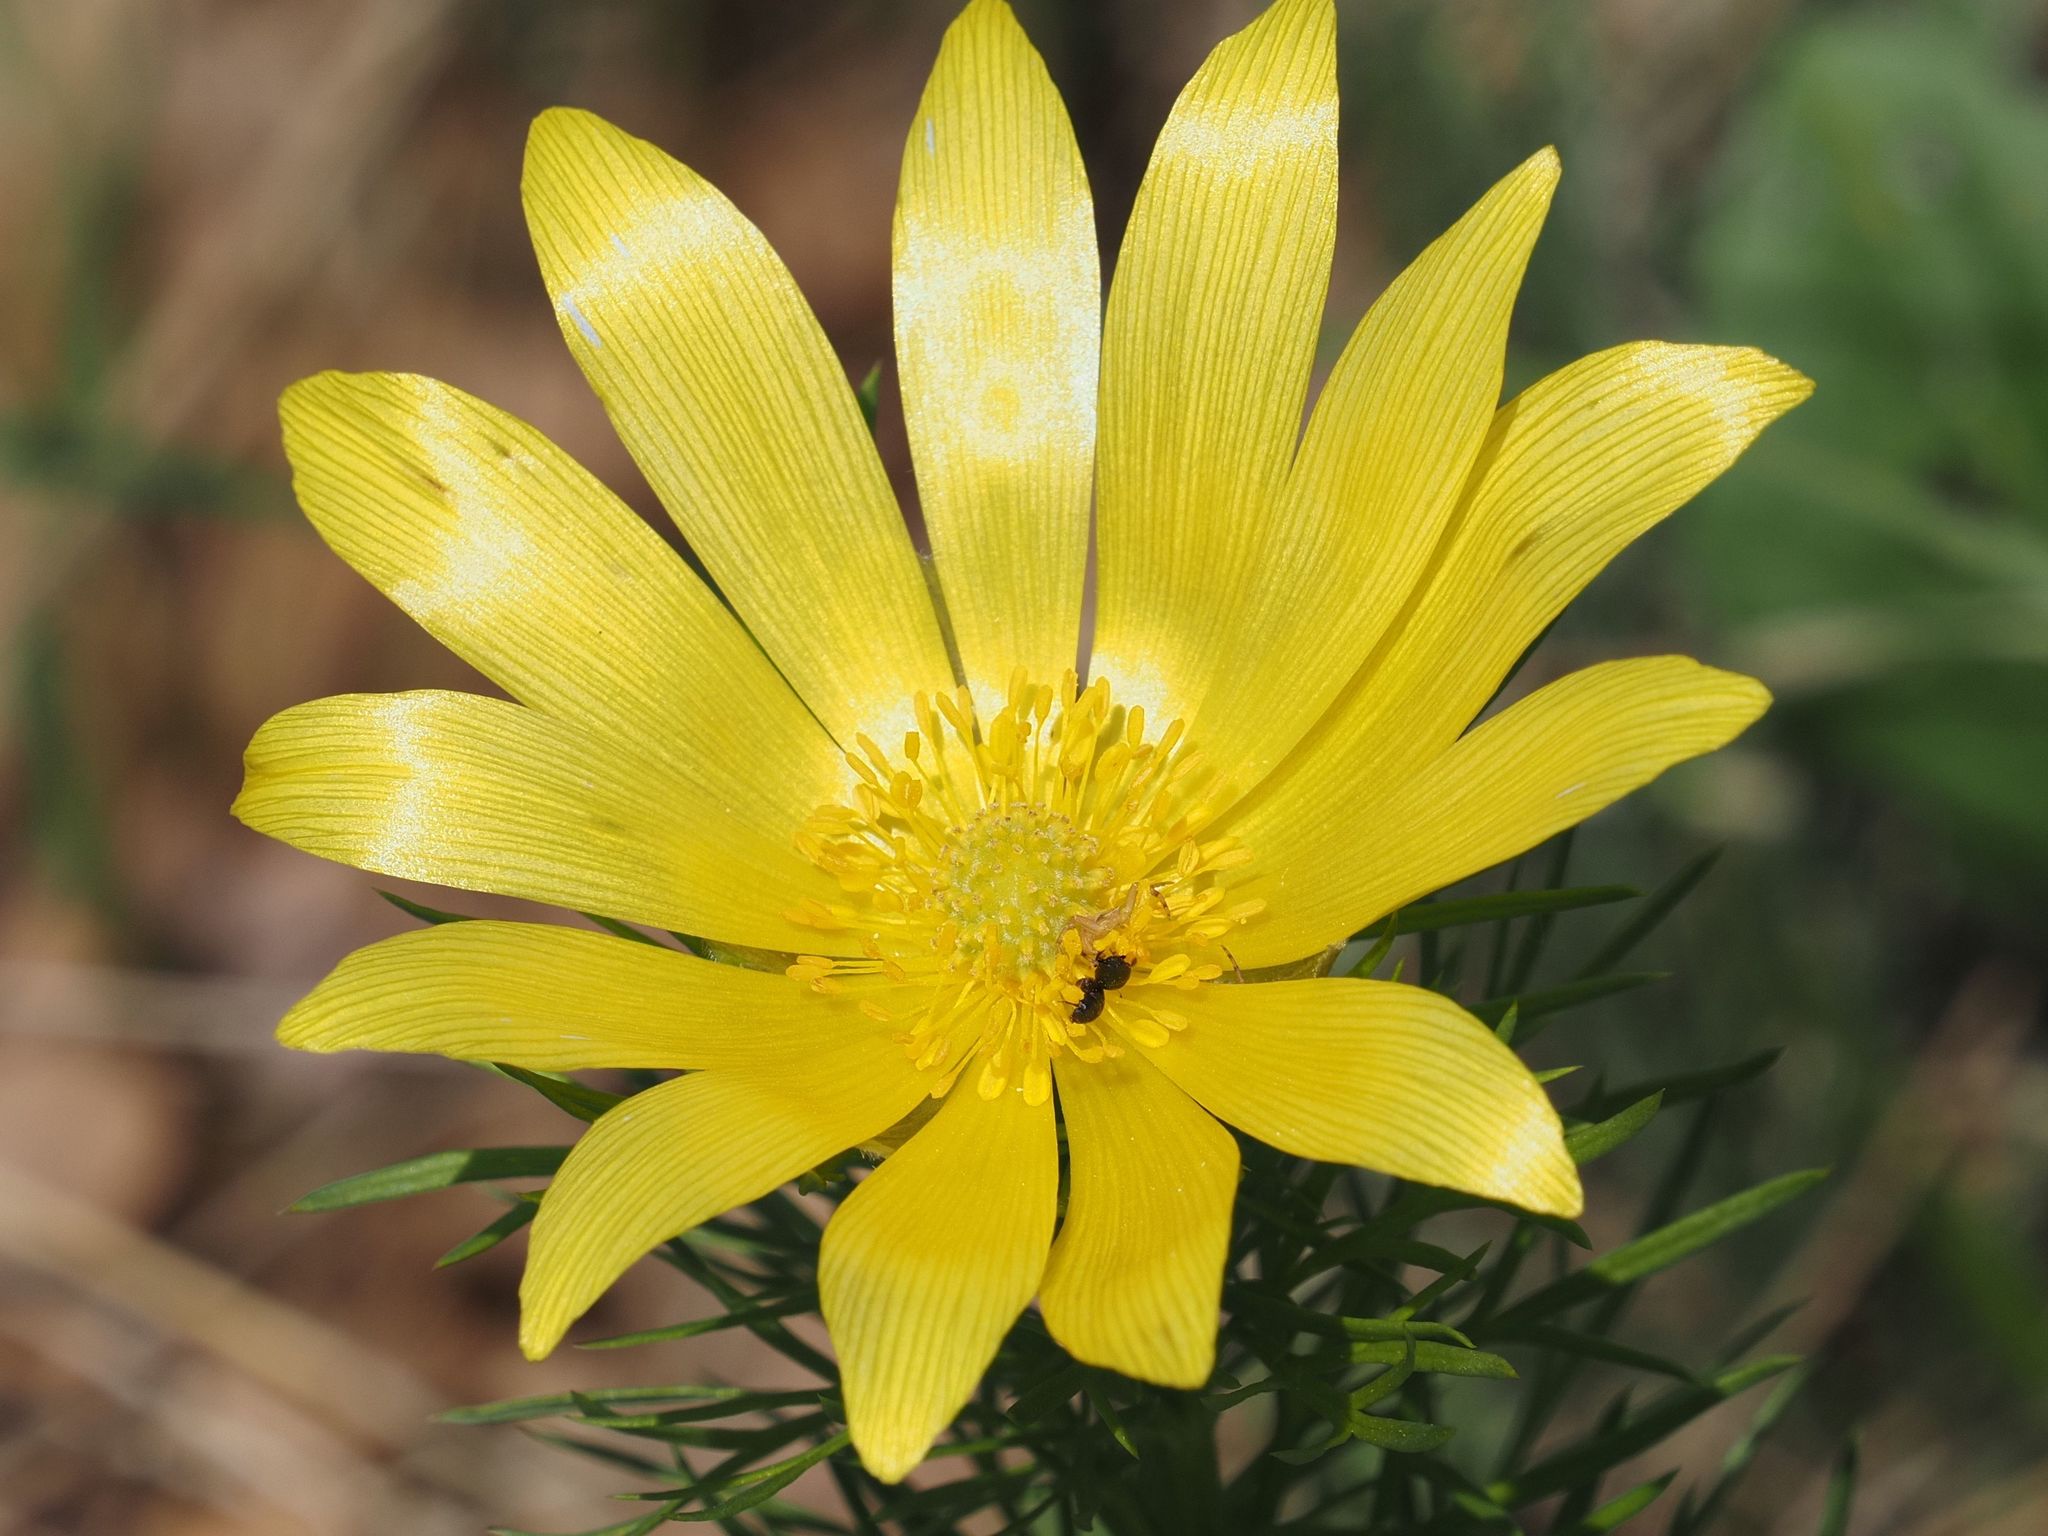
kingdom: Plantae
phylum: Tracheophyta
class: Magnoliopsida
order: Ranunculales
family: Ranunculaceae
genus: Adonis
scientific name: Adonis vernalis
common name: Yellow pheasants-eye
